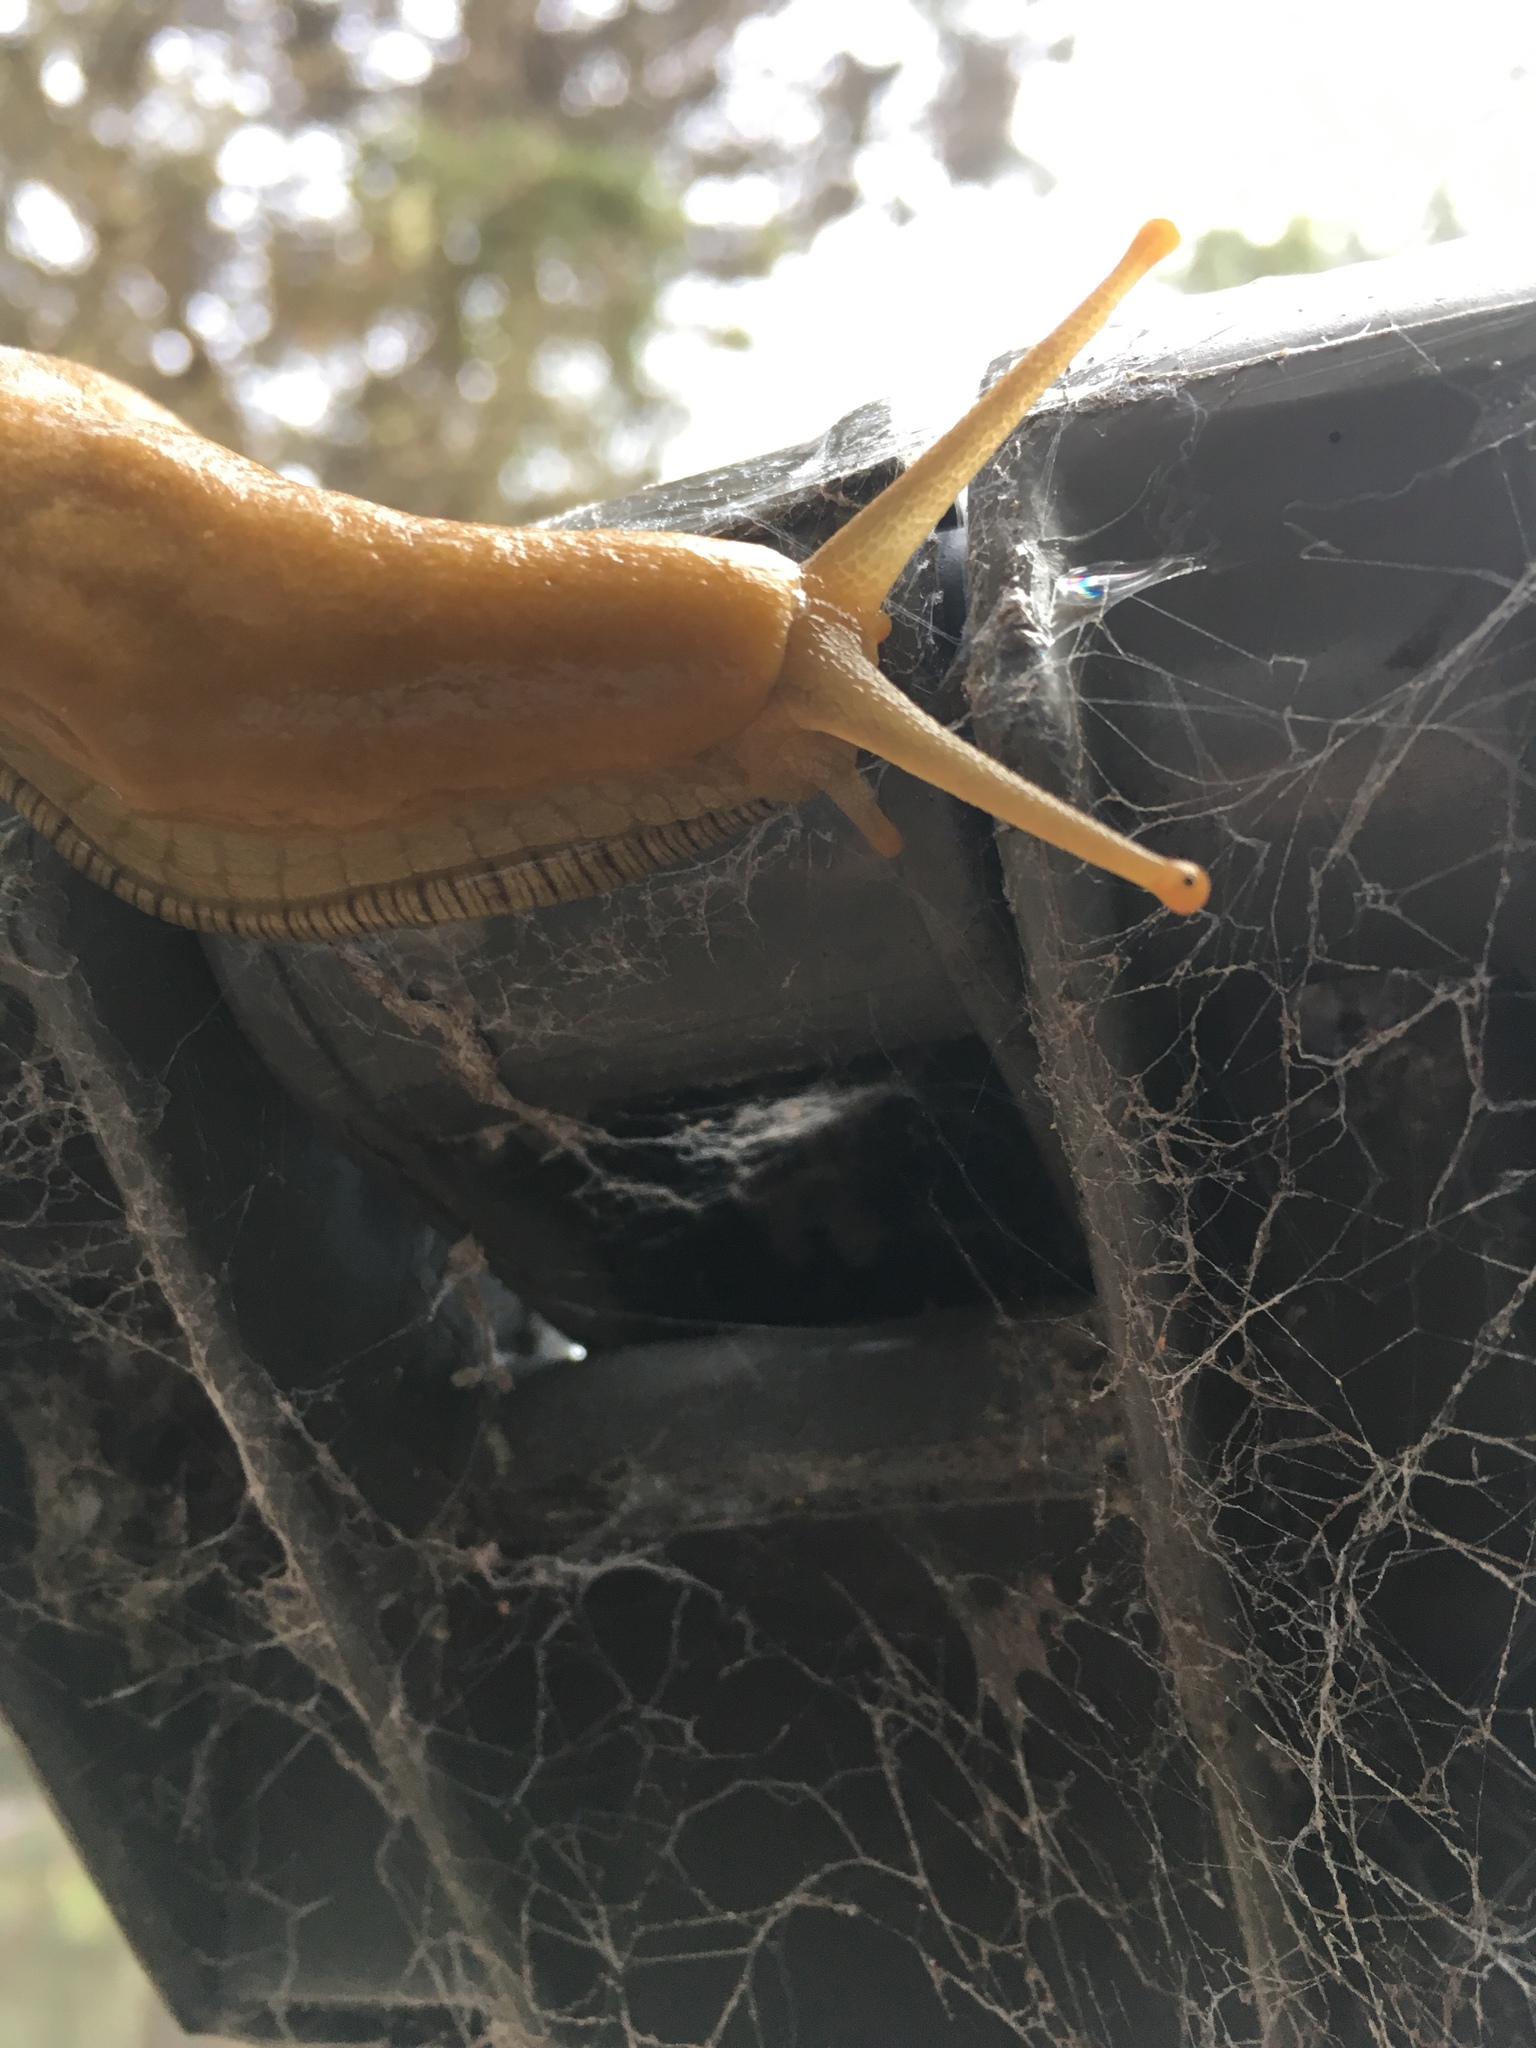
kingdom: Animalia
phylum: Mollusca
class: Gastropoda
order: Stylommatophora
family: Ariolimacidae
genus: Ariolimax
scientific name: Ariolimax buttoni
